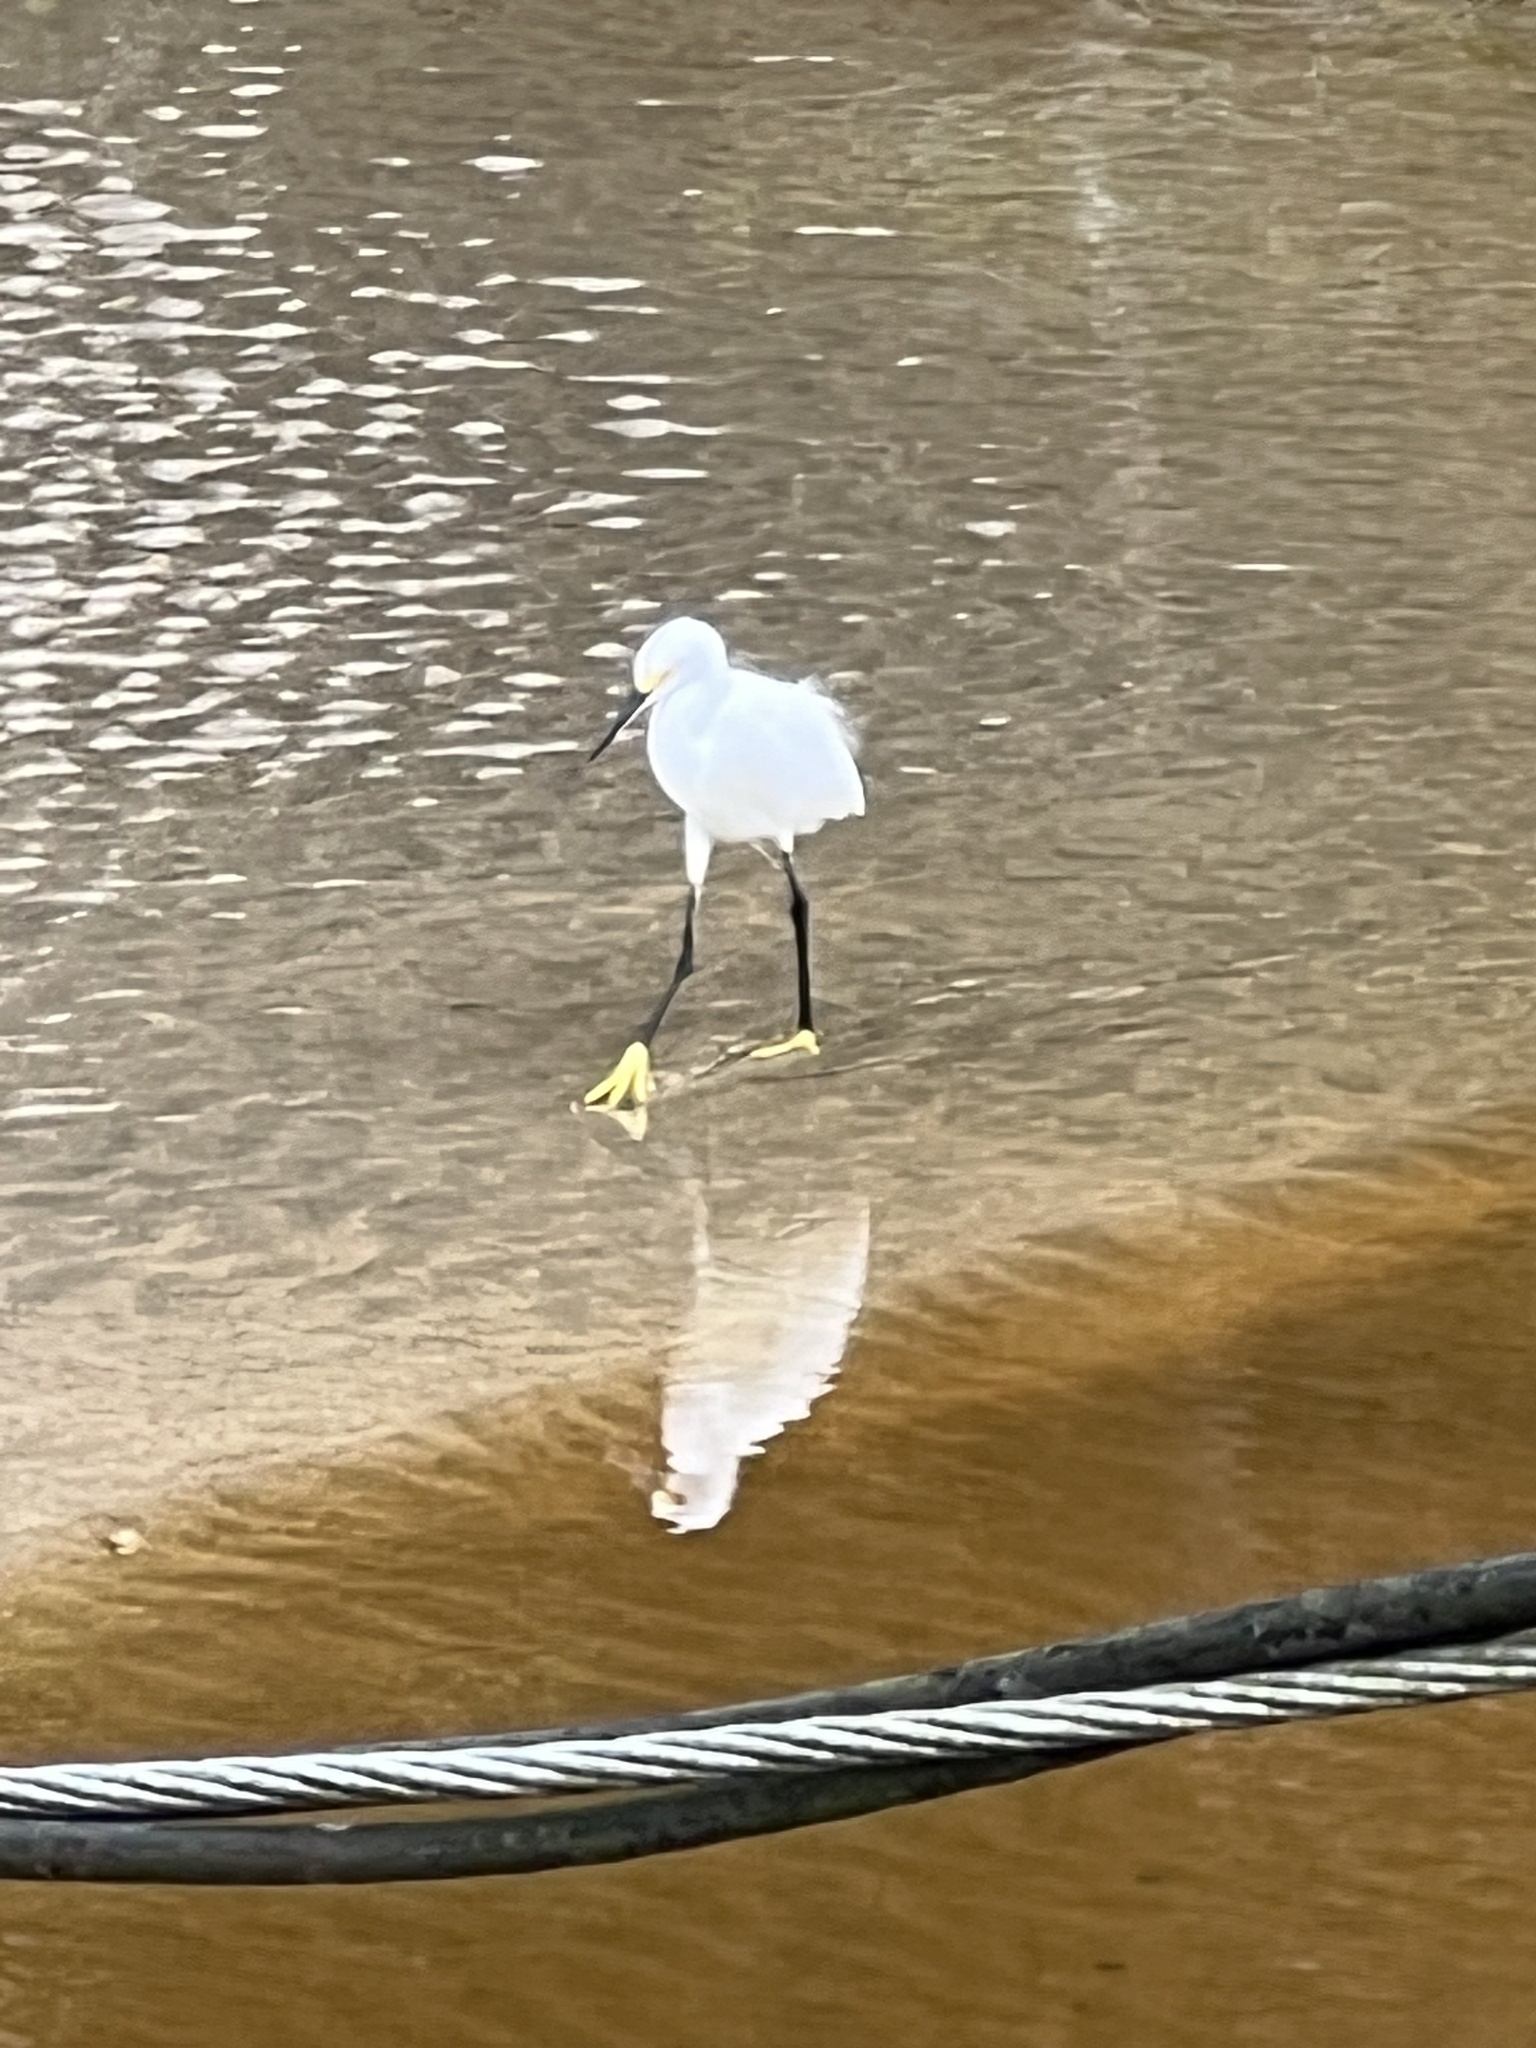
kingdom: Animalia
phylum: Chordata
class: Aves
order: Pelecaniformes
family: Ardeidae
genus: Egretta
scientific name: Egretta thula
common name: Snowy egret
